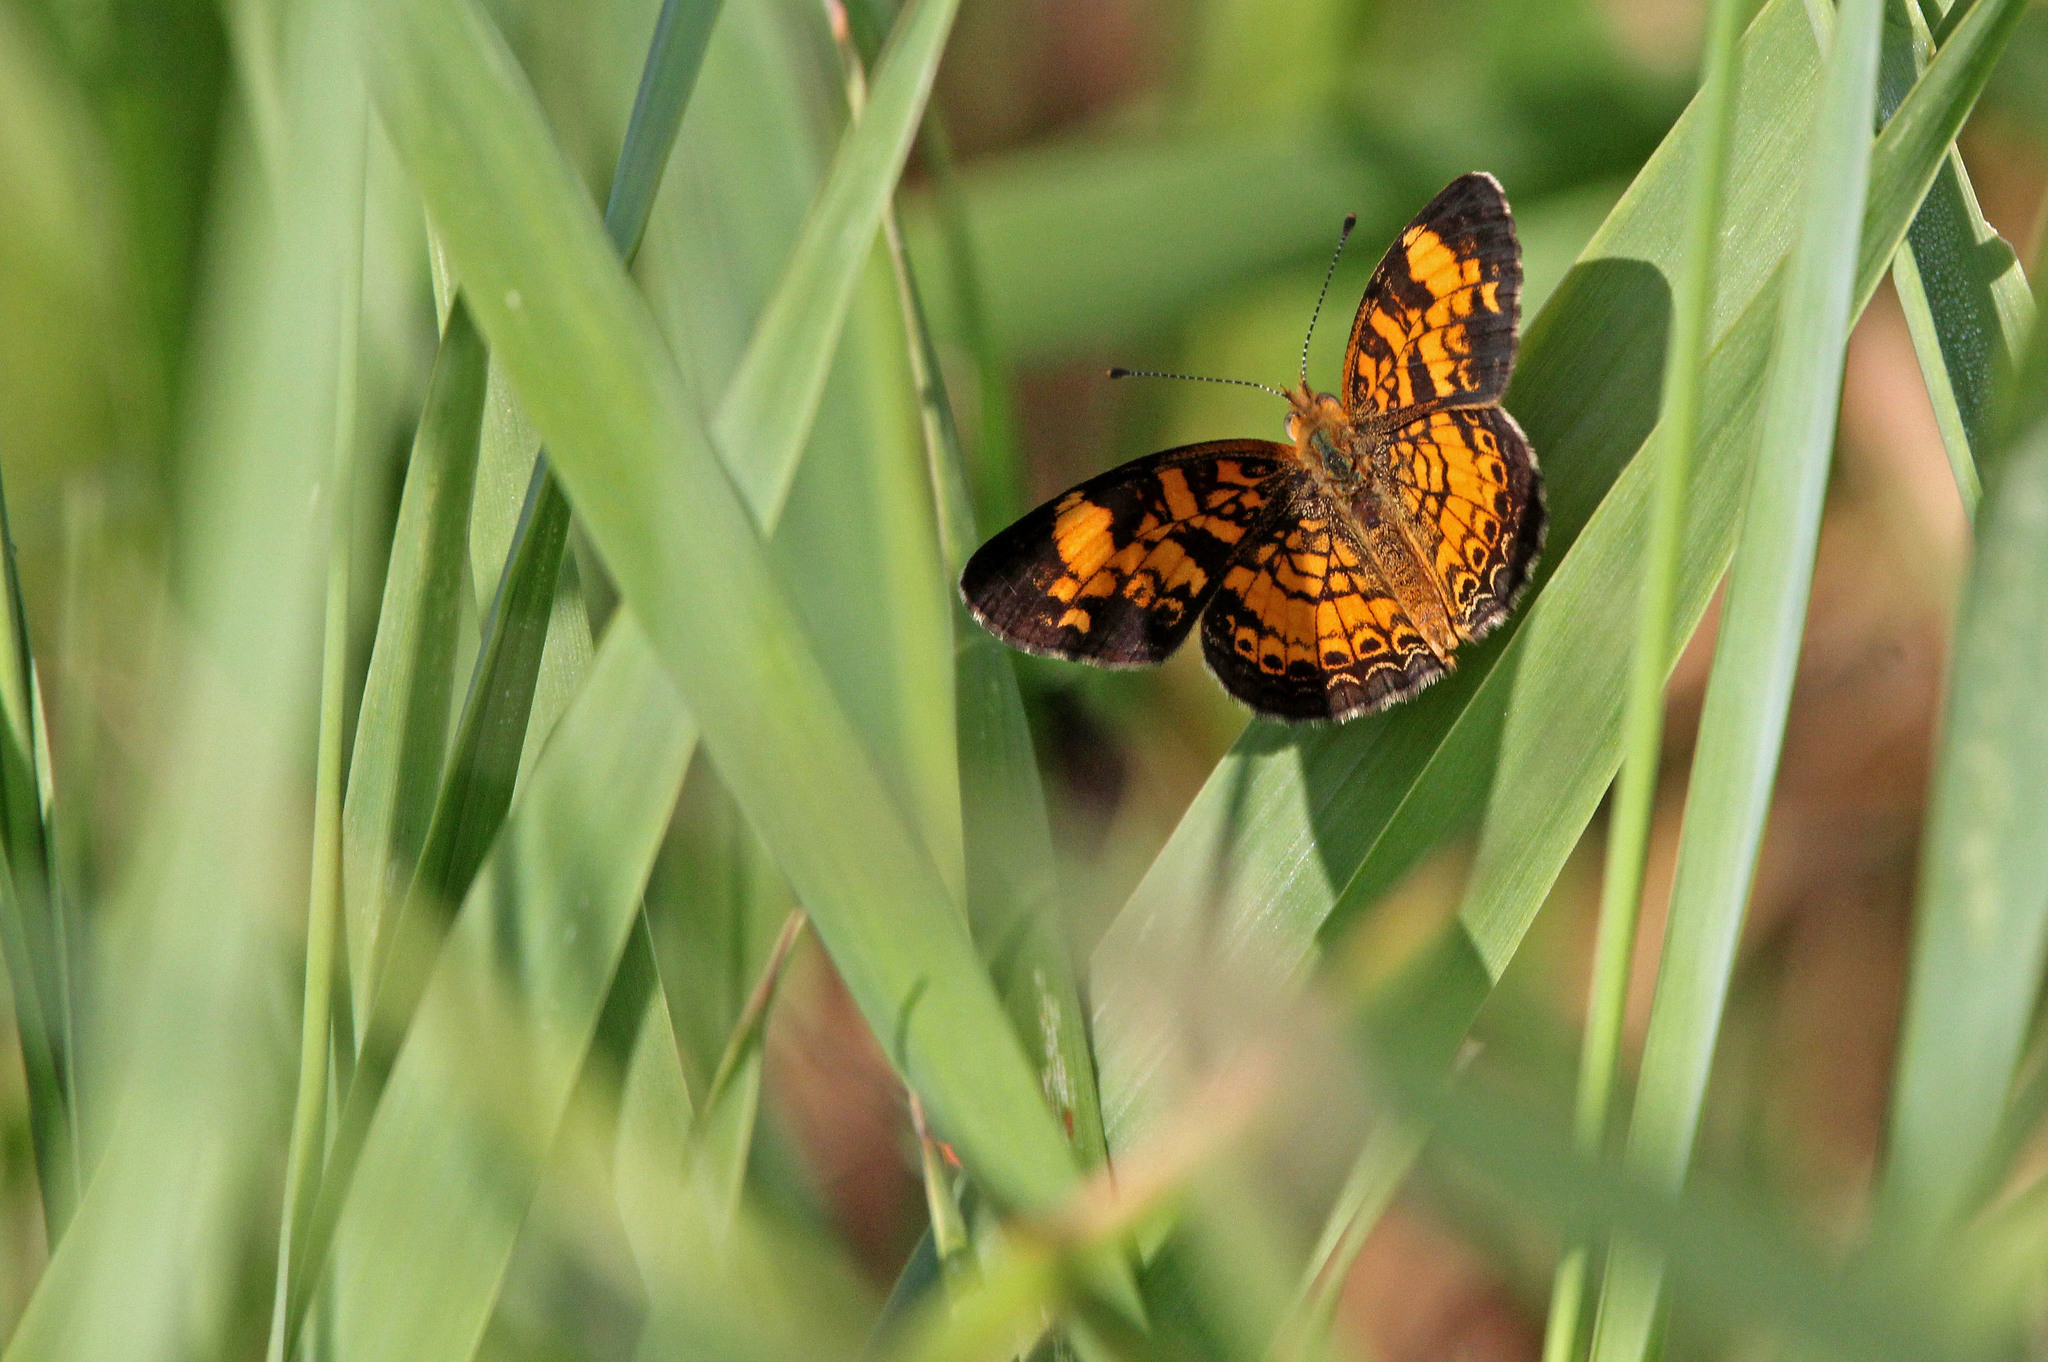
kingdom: Animalia
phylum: Arthropoda
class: Insecta
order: Lepidoptera
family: Nymphalidae
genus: Phyciodes
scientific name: Phyciodes tharos
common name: Pearl crescent
